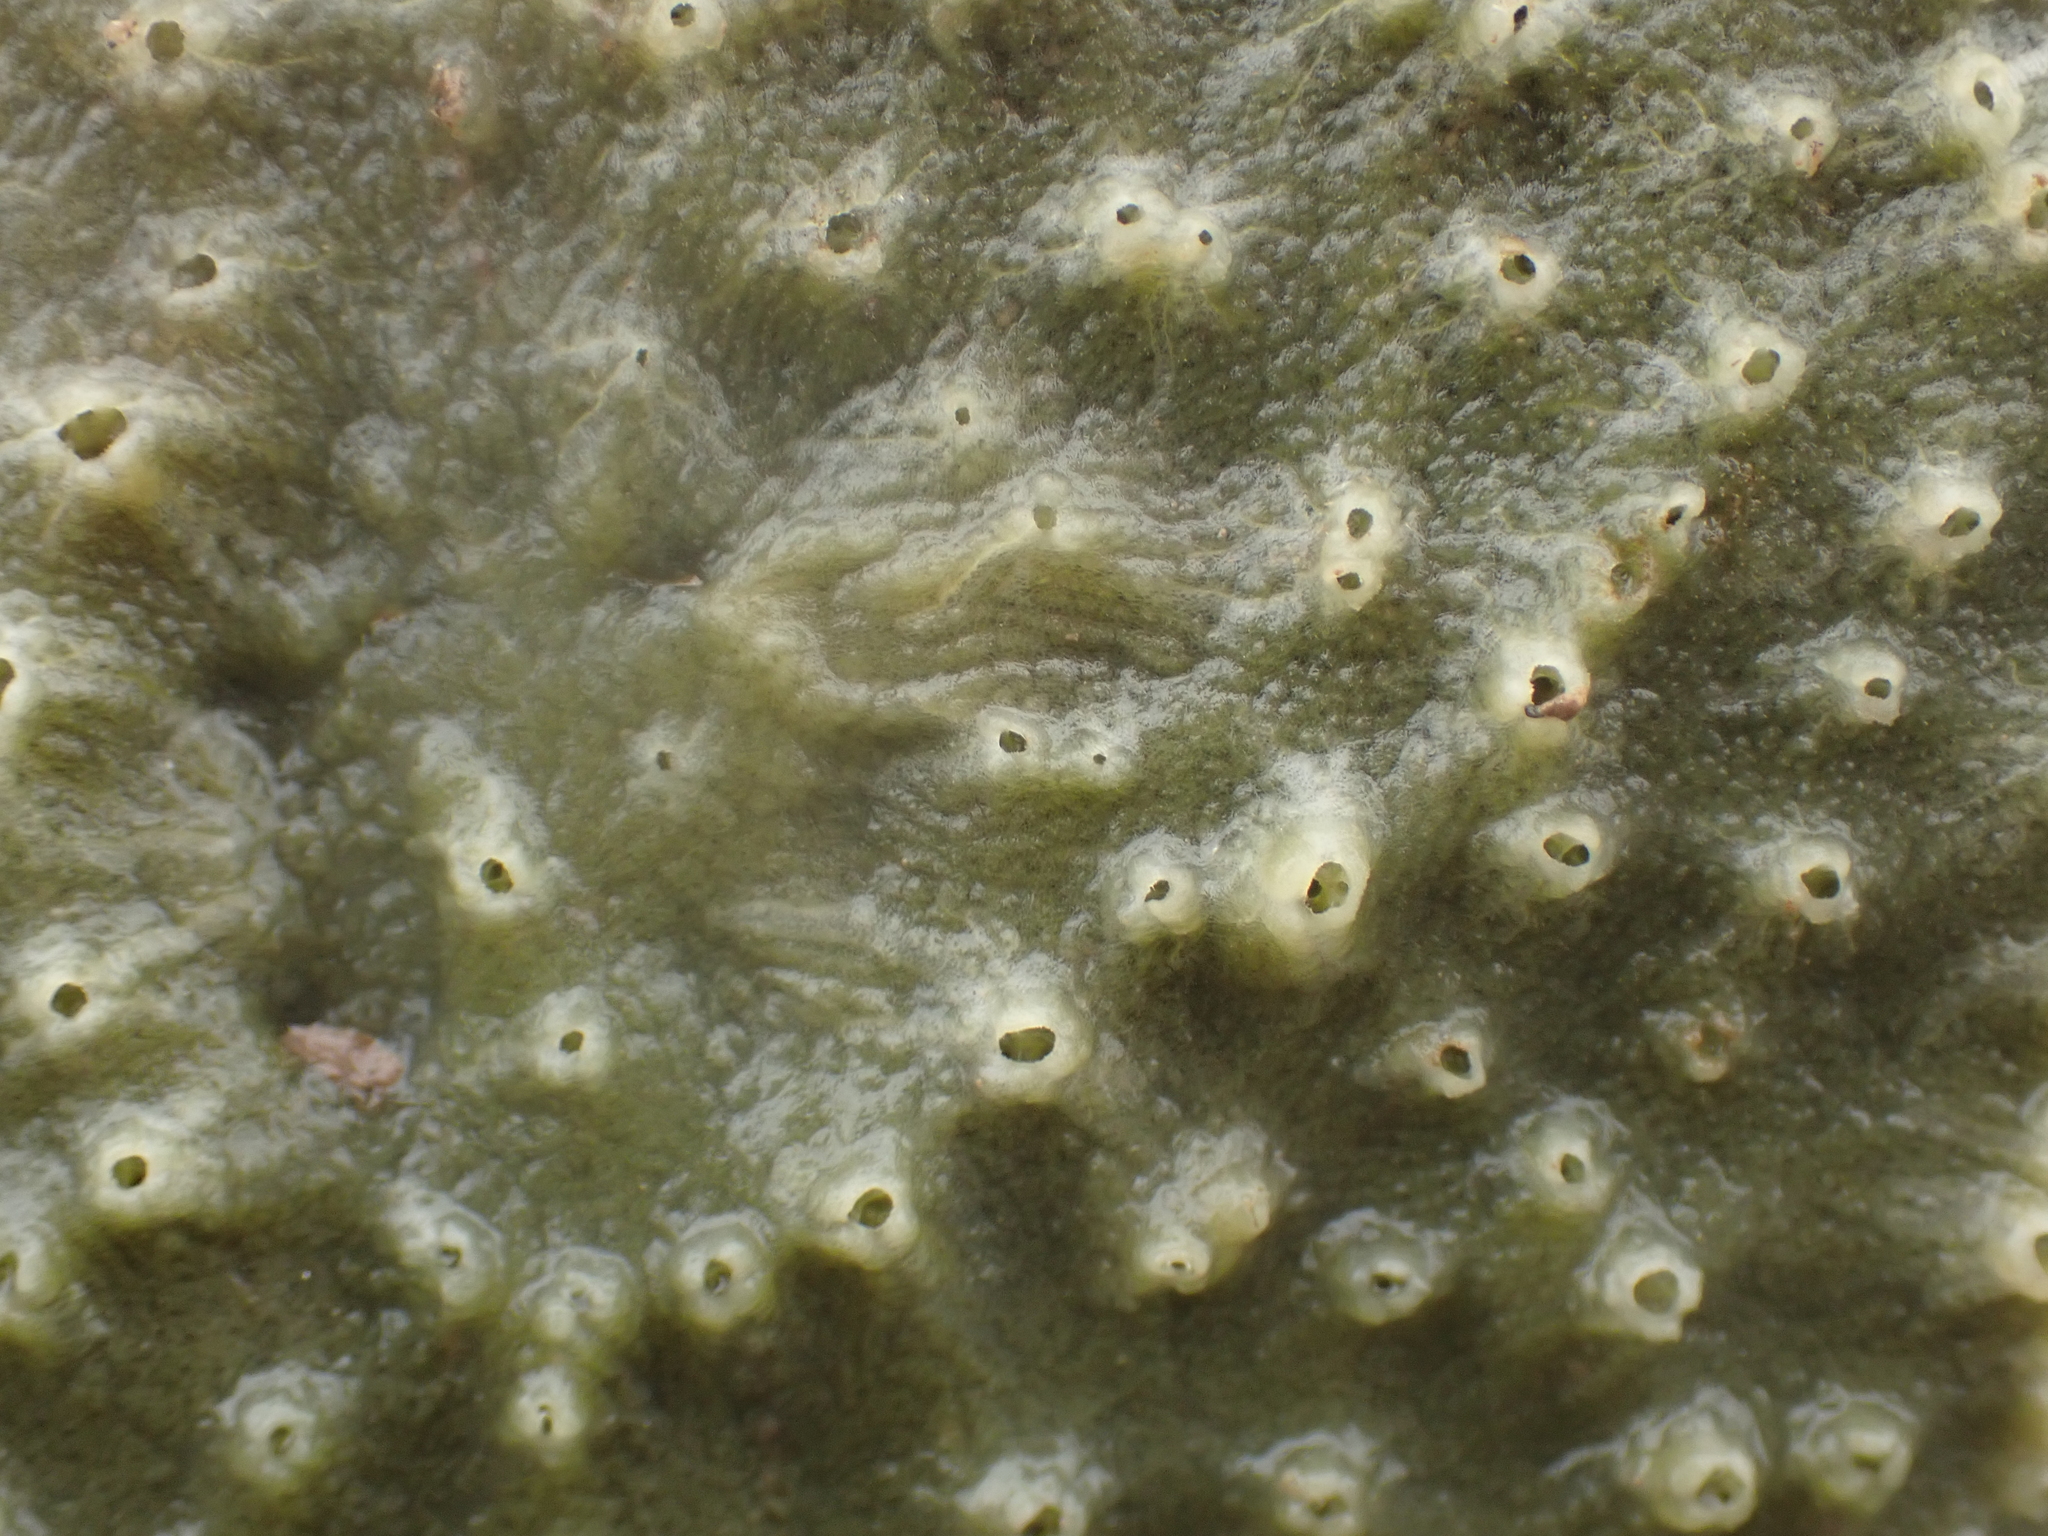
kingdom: Animalia
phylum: Porifera
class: Demospongiae
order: Suberitida
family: Halichondriidae
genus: Halichondria
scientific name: Halichondria panicea
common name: Breadcrumb sponge
